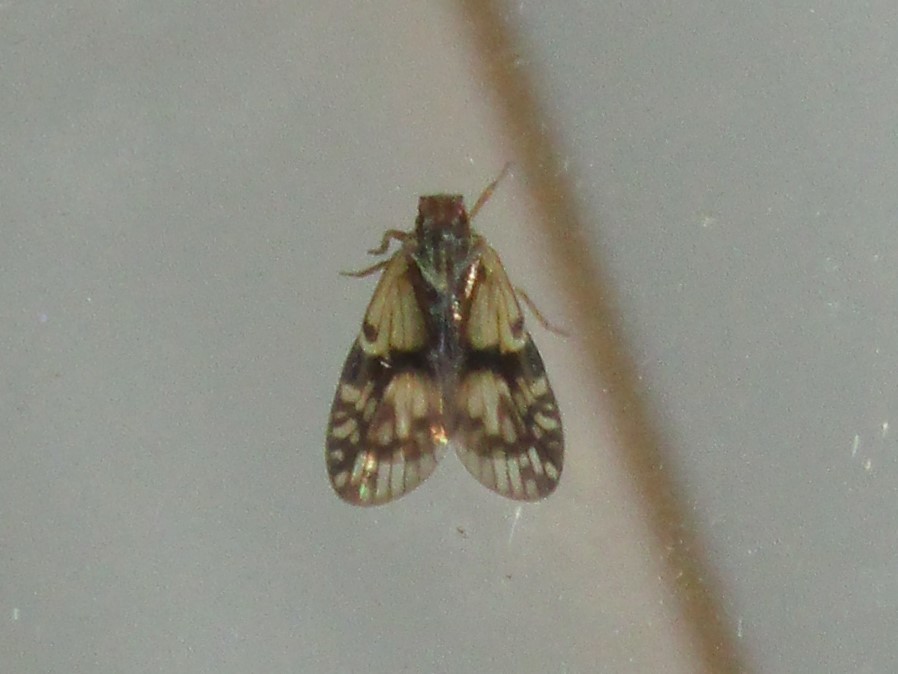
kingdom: Animalia
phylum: Arthropoda
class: Insecta
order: Hemiptera
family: Cixiidae
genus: Bothriocera
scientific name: Bothriocera datuna
